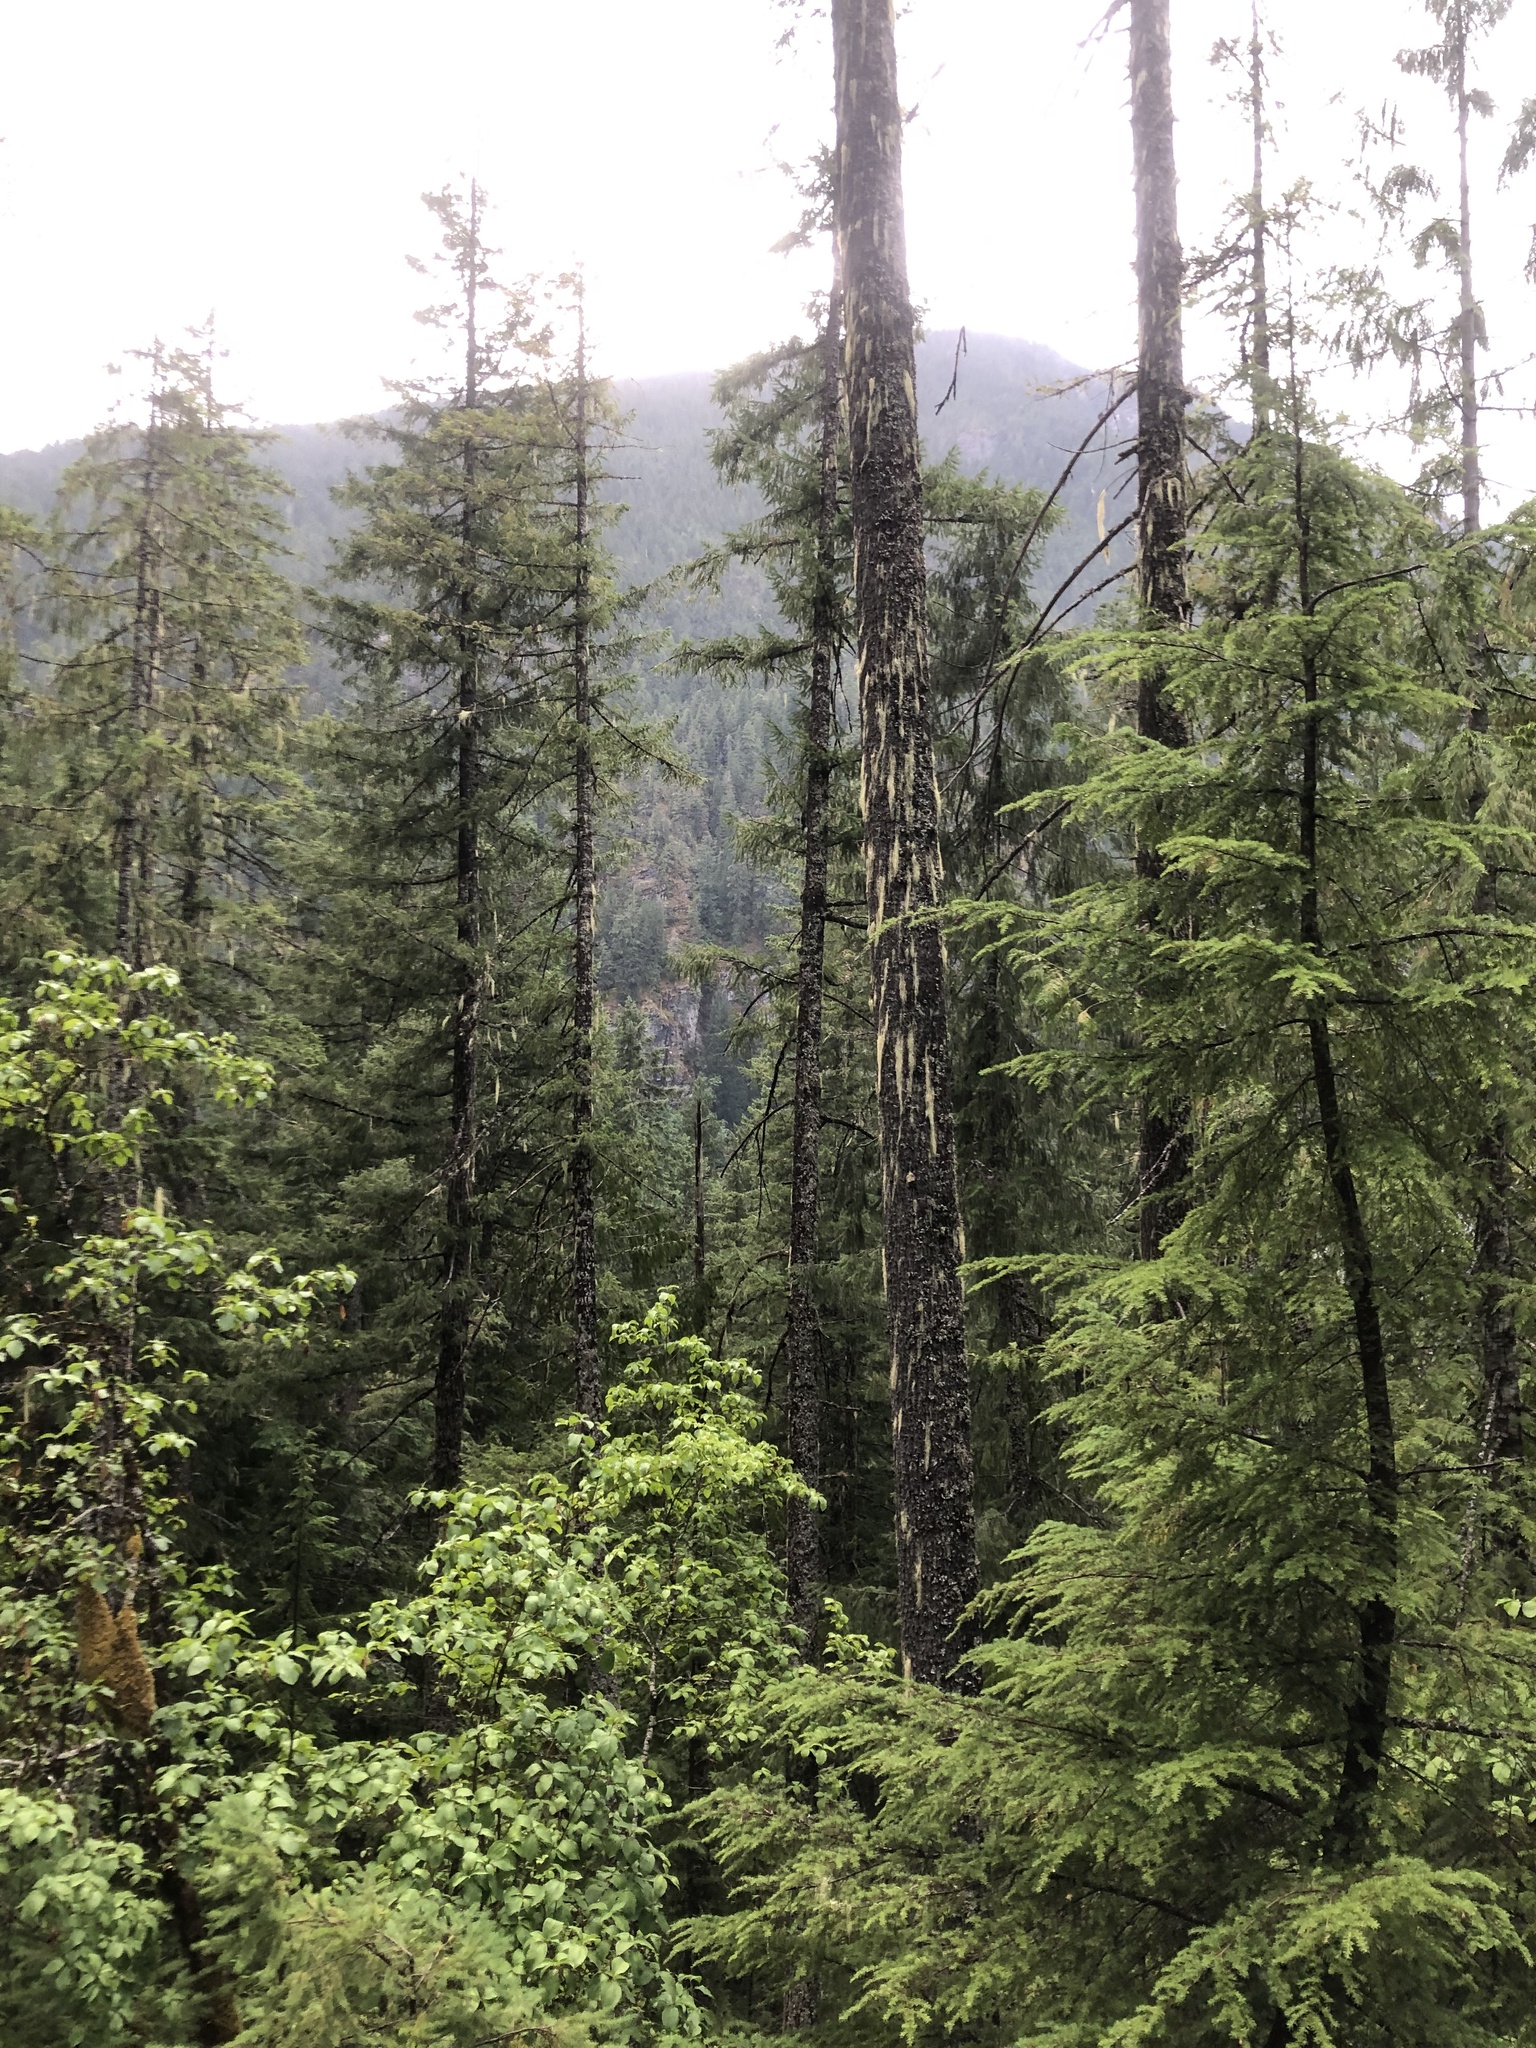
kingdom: Plantae
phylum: Tracheophyta
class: Pinopsida
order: Pinales
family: Pinaceae
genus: Tsuga
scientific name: Tsuga heterophylla
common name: Western hemlock
